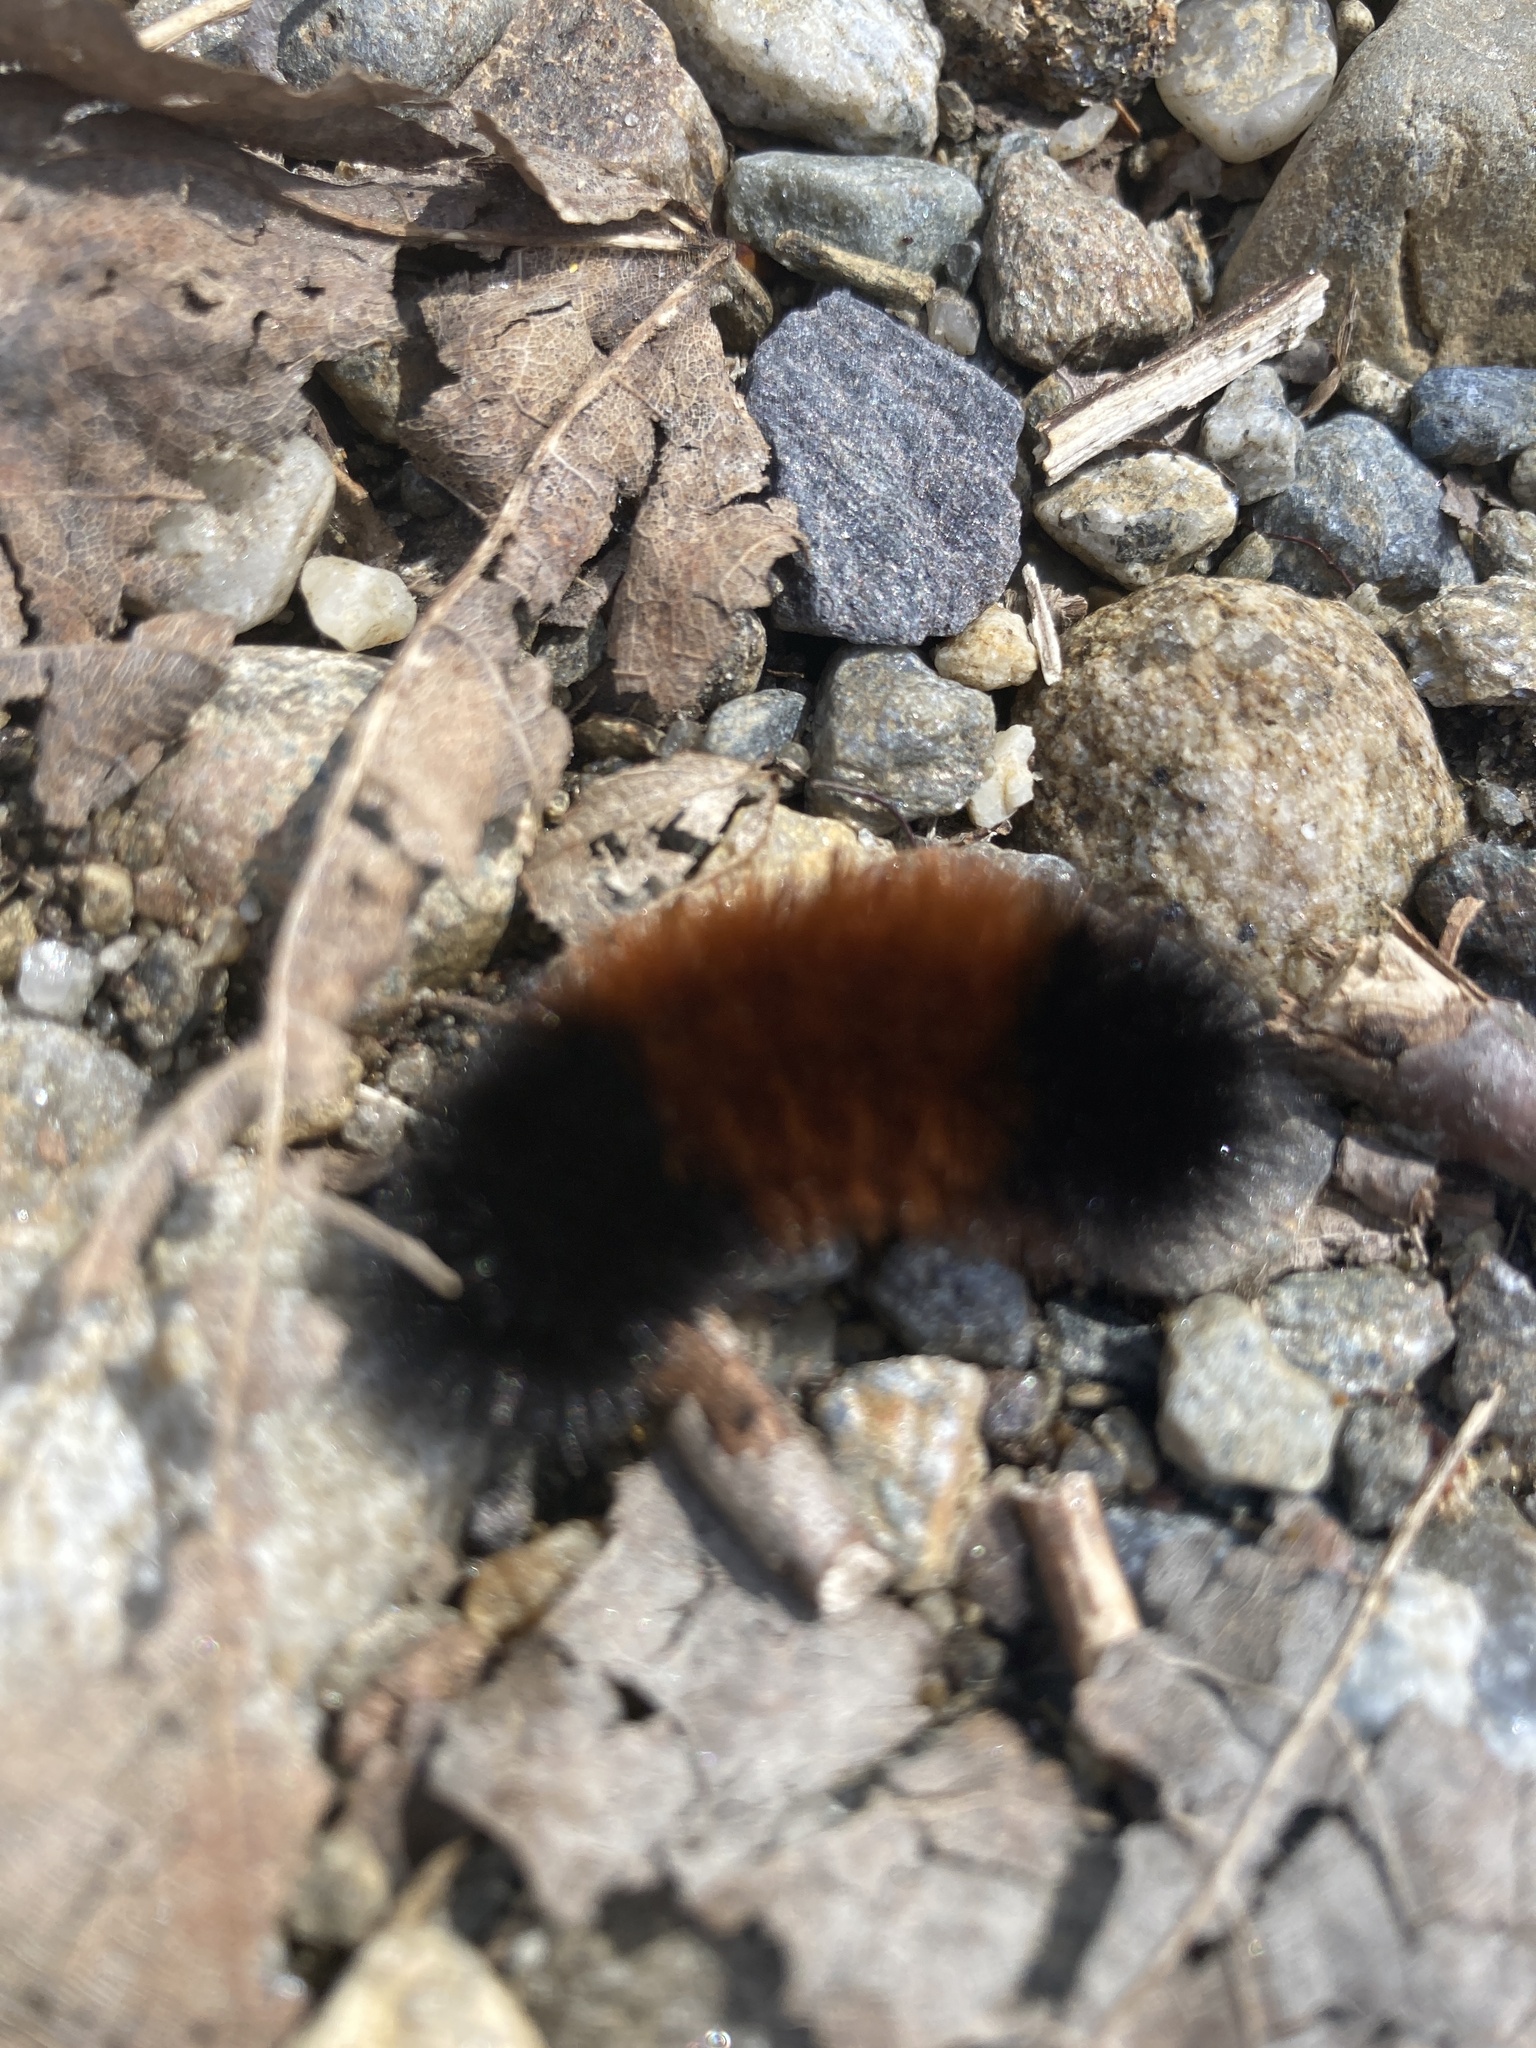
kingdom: Animalia
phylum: Arthropoda
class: Insecta
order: Lepidoptera
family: Erebidae
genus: Pyrrharctia
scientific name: Pyrrharctia isabella
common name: Isabella tiger moth
